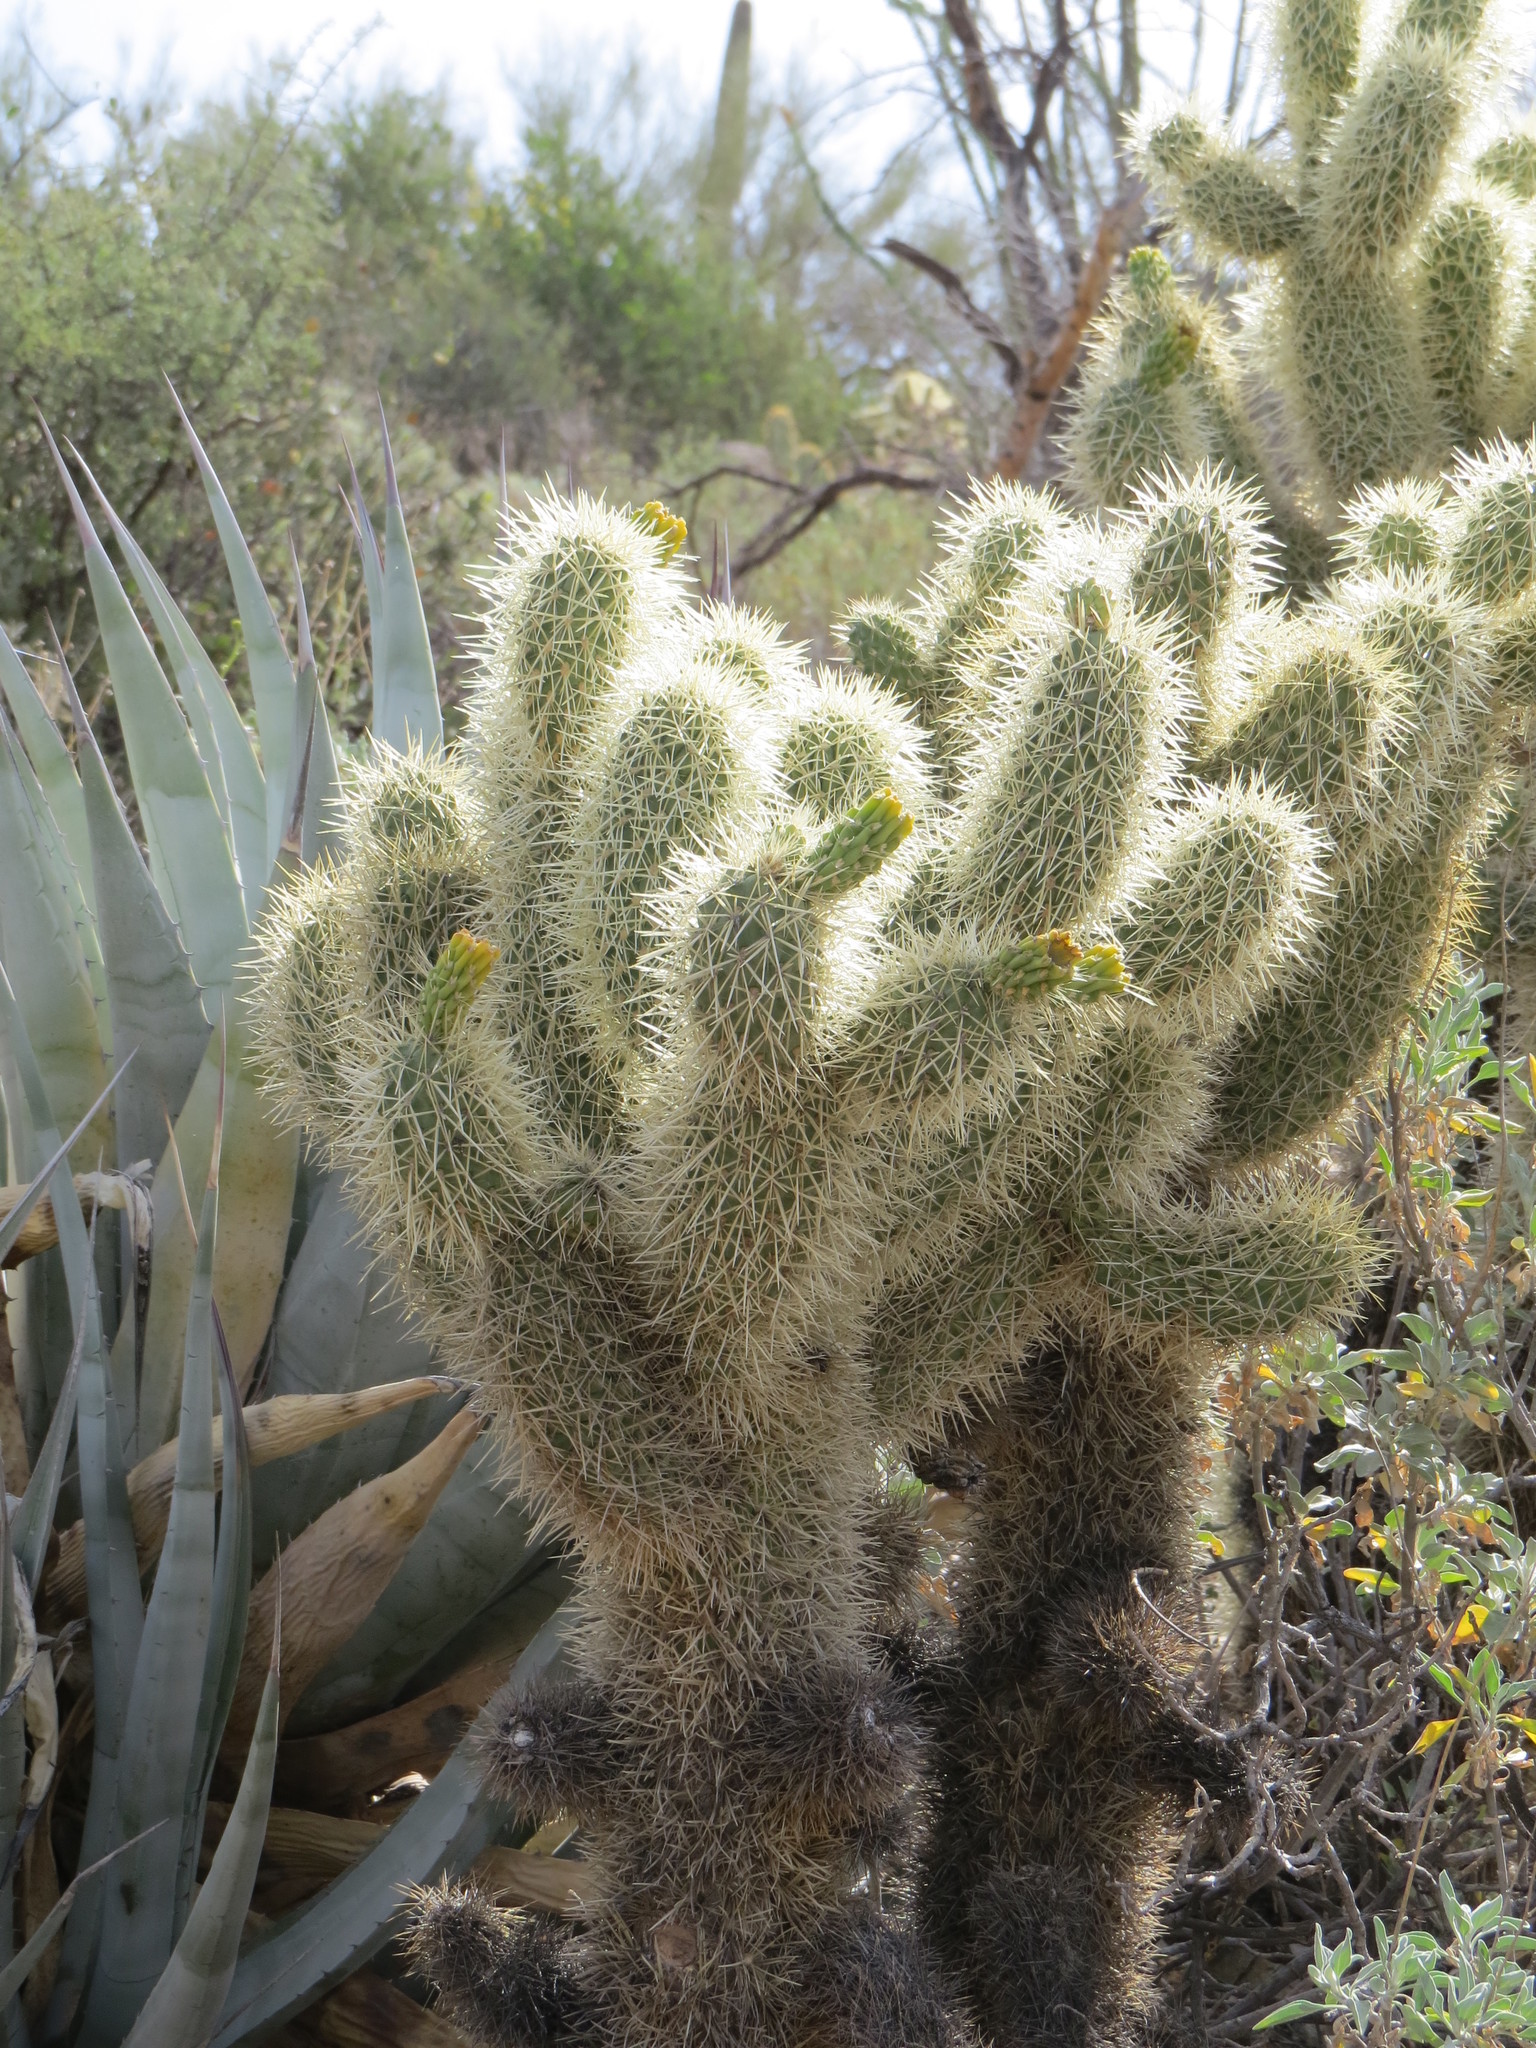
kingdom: Plantae
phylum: Tracheophyta
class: Magnoliopsida
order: Caryophyllales
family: Cactaceae
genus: Cylindropuntia
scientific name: Cylindropuntia fosbergii
